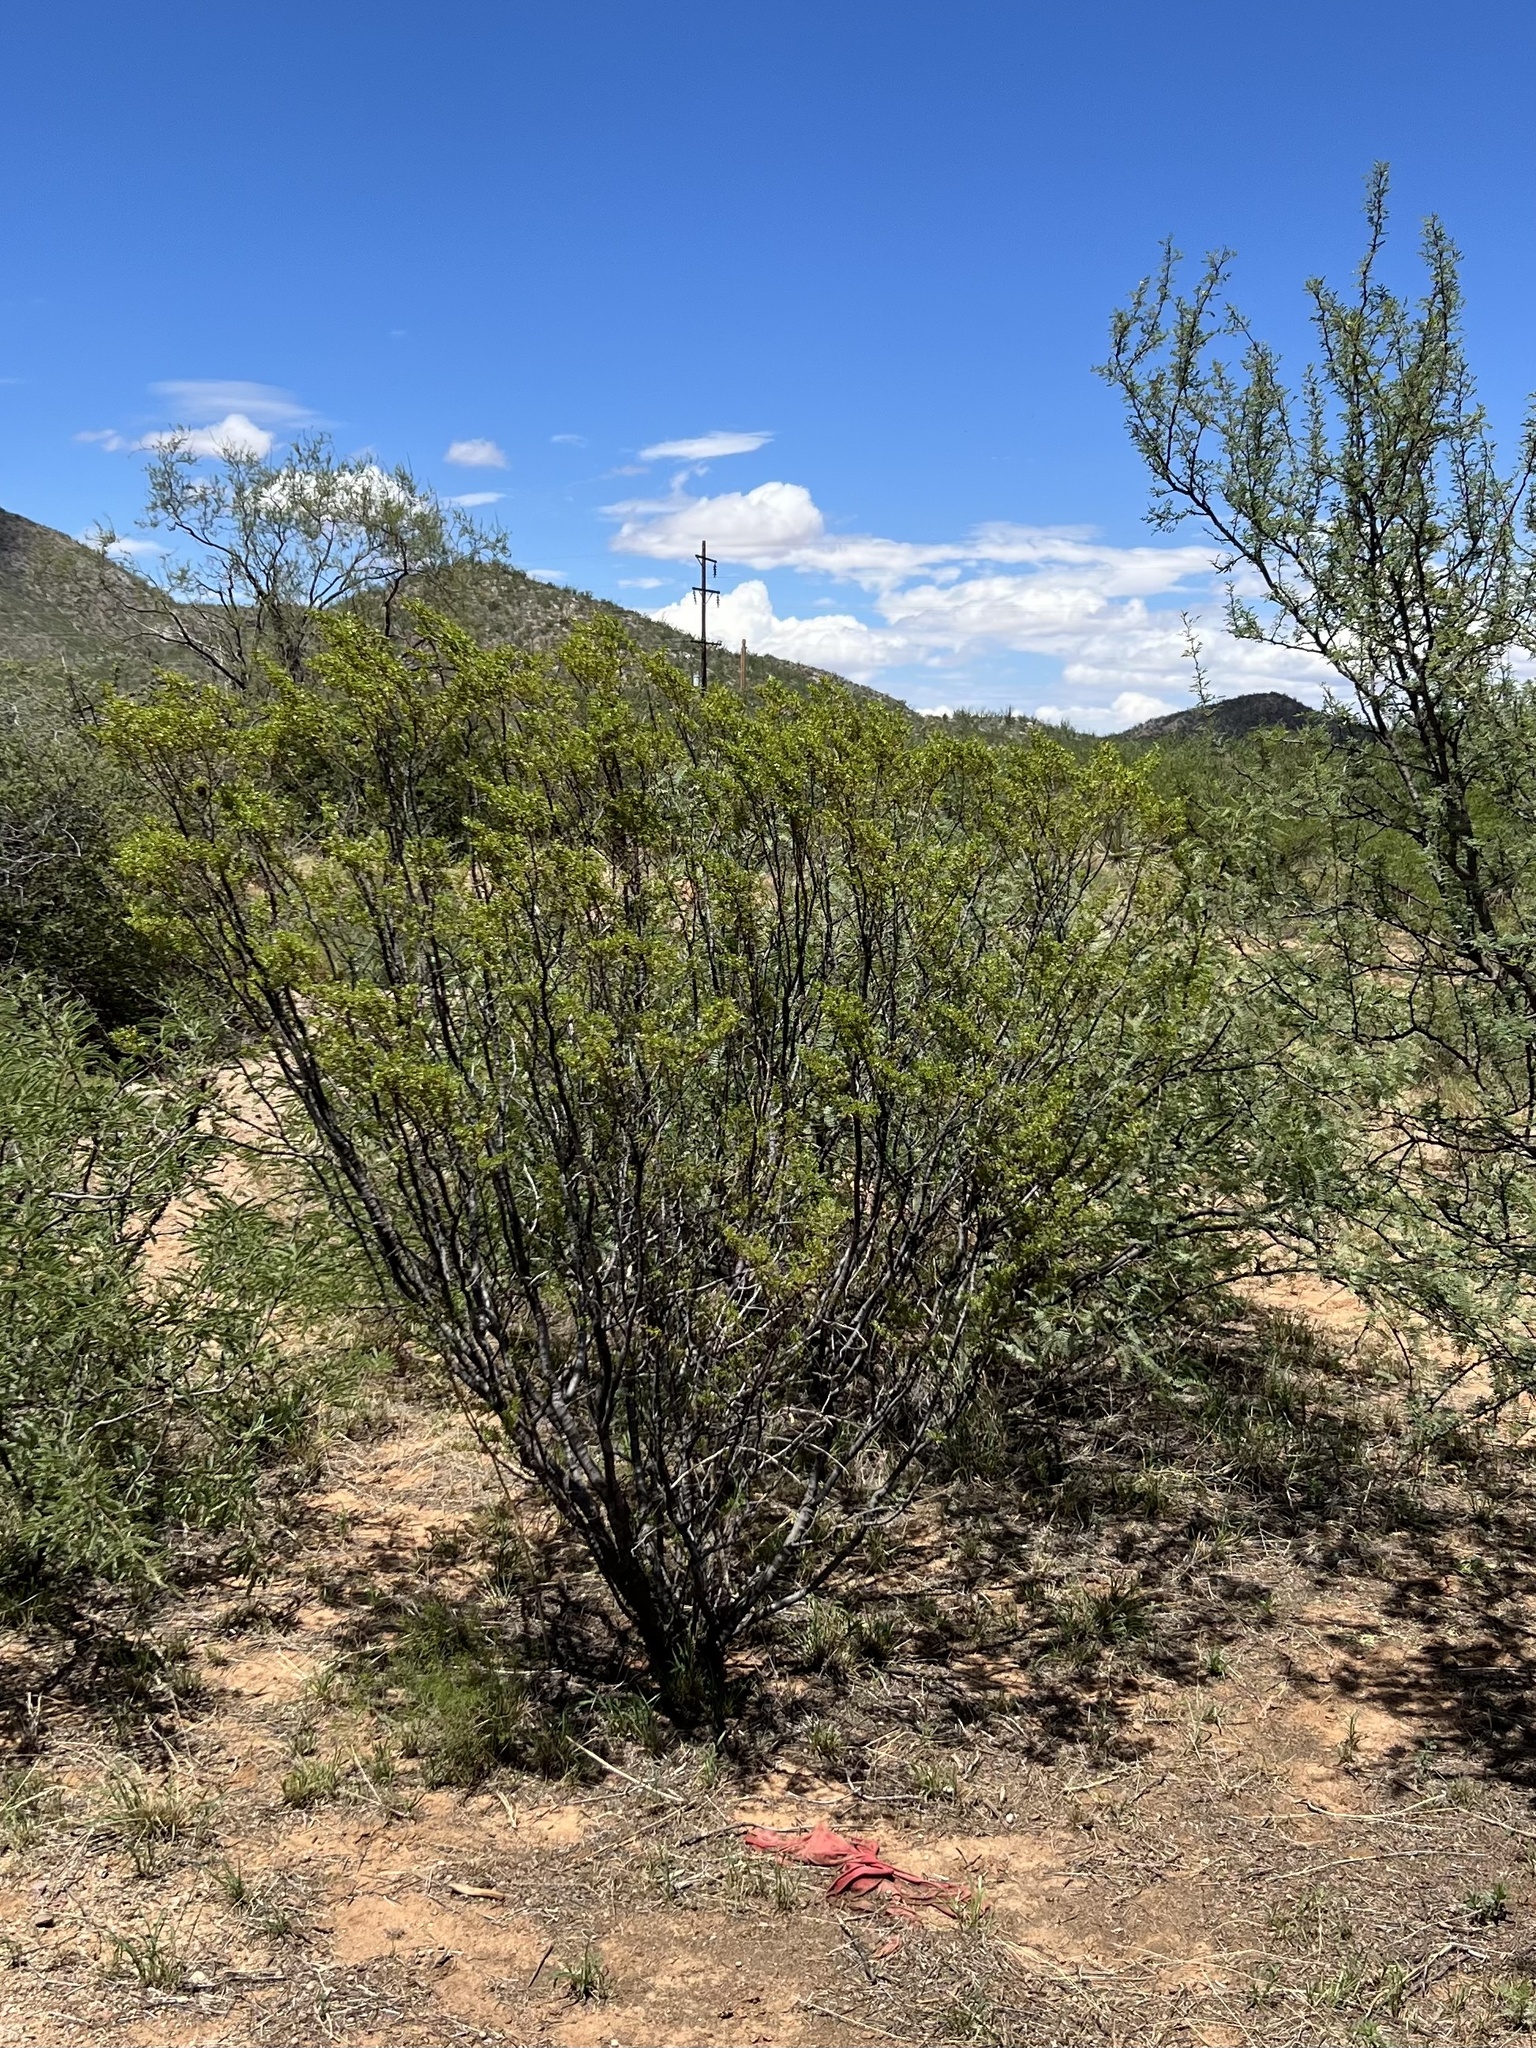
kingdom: Plantae
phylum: Tracheophyta
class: Magnoliopsida
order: Zygophyllales
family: Zygophyllaceae
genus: Larrea
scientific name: Larrea tridentata
